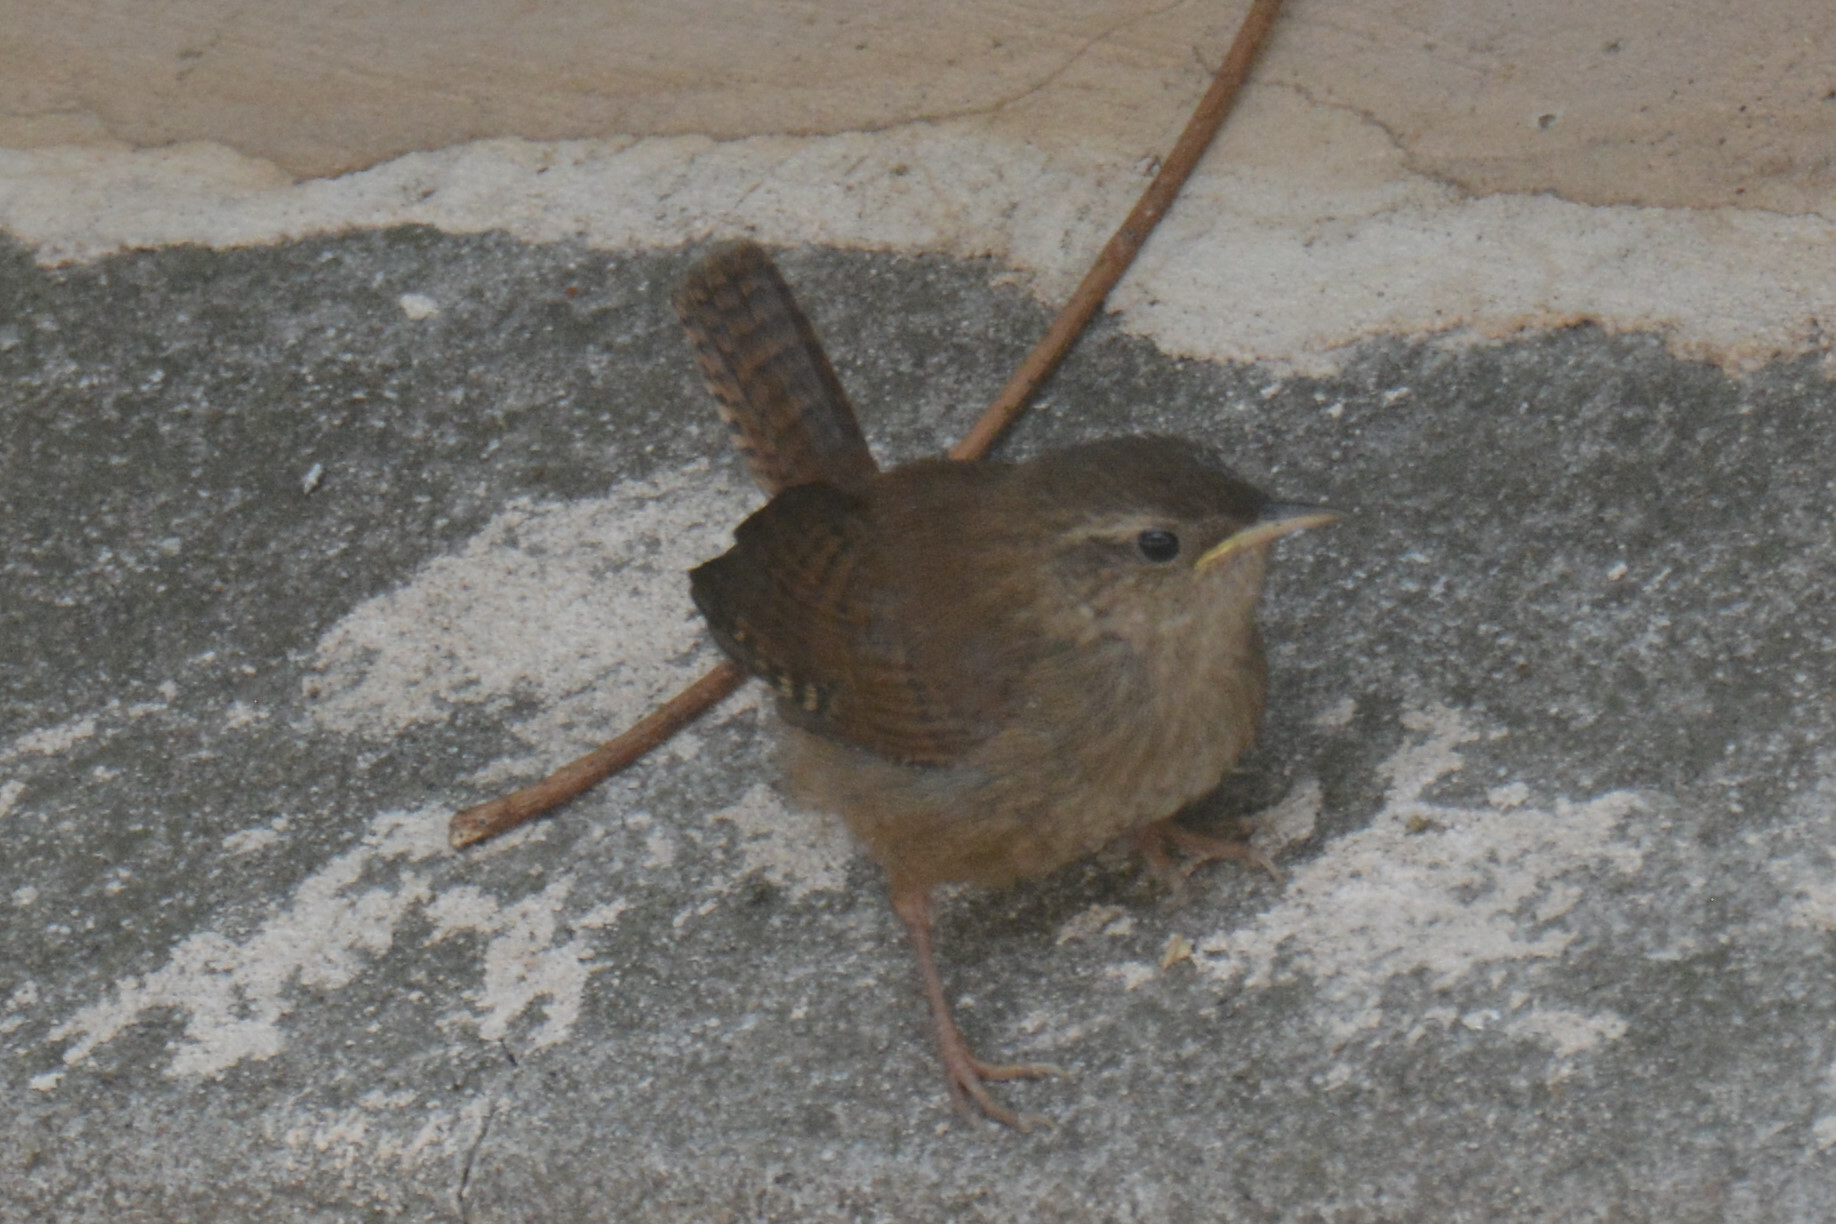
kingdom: Animalia
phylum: Chordata
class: Aves
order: Passeriformes
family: Troglodytidae
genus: Troglodytes
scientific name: Troglodytes troglodytes
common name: Eurasian wren
